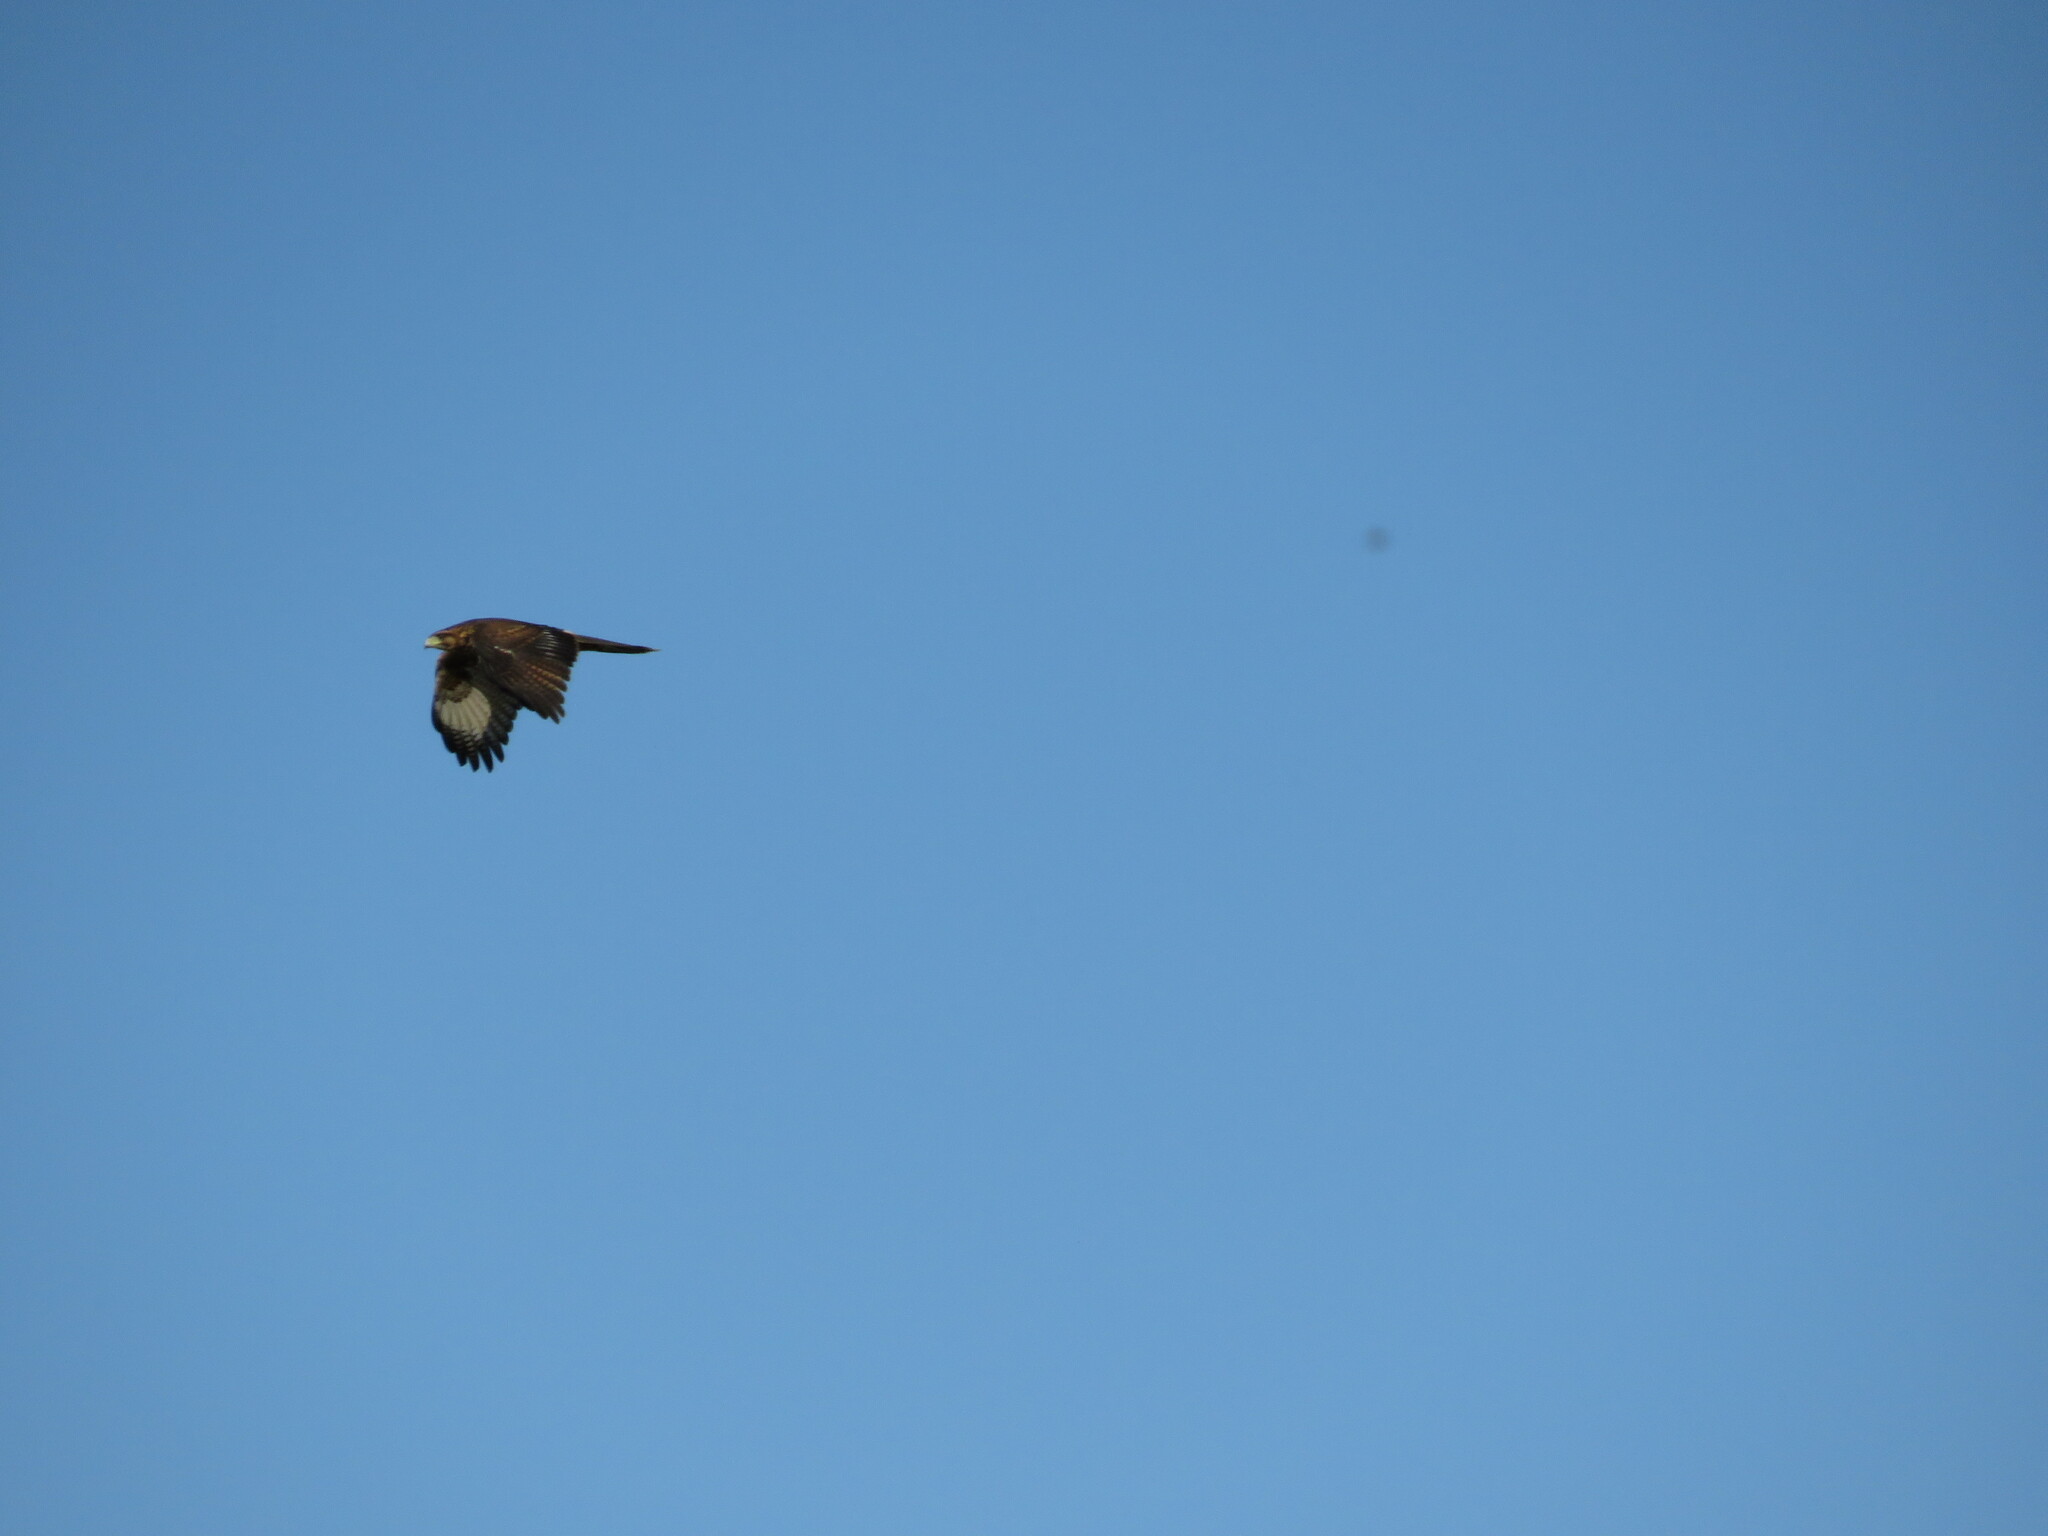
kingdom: Animalia
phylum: Chordata
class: Aves
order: Accipitriformes
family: Accipitridae
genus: Parabuteo
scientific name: Parabuteo unicinctus
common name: Harris's hawk
